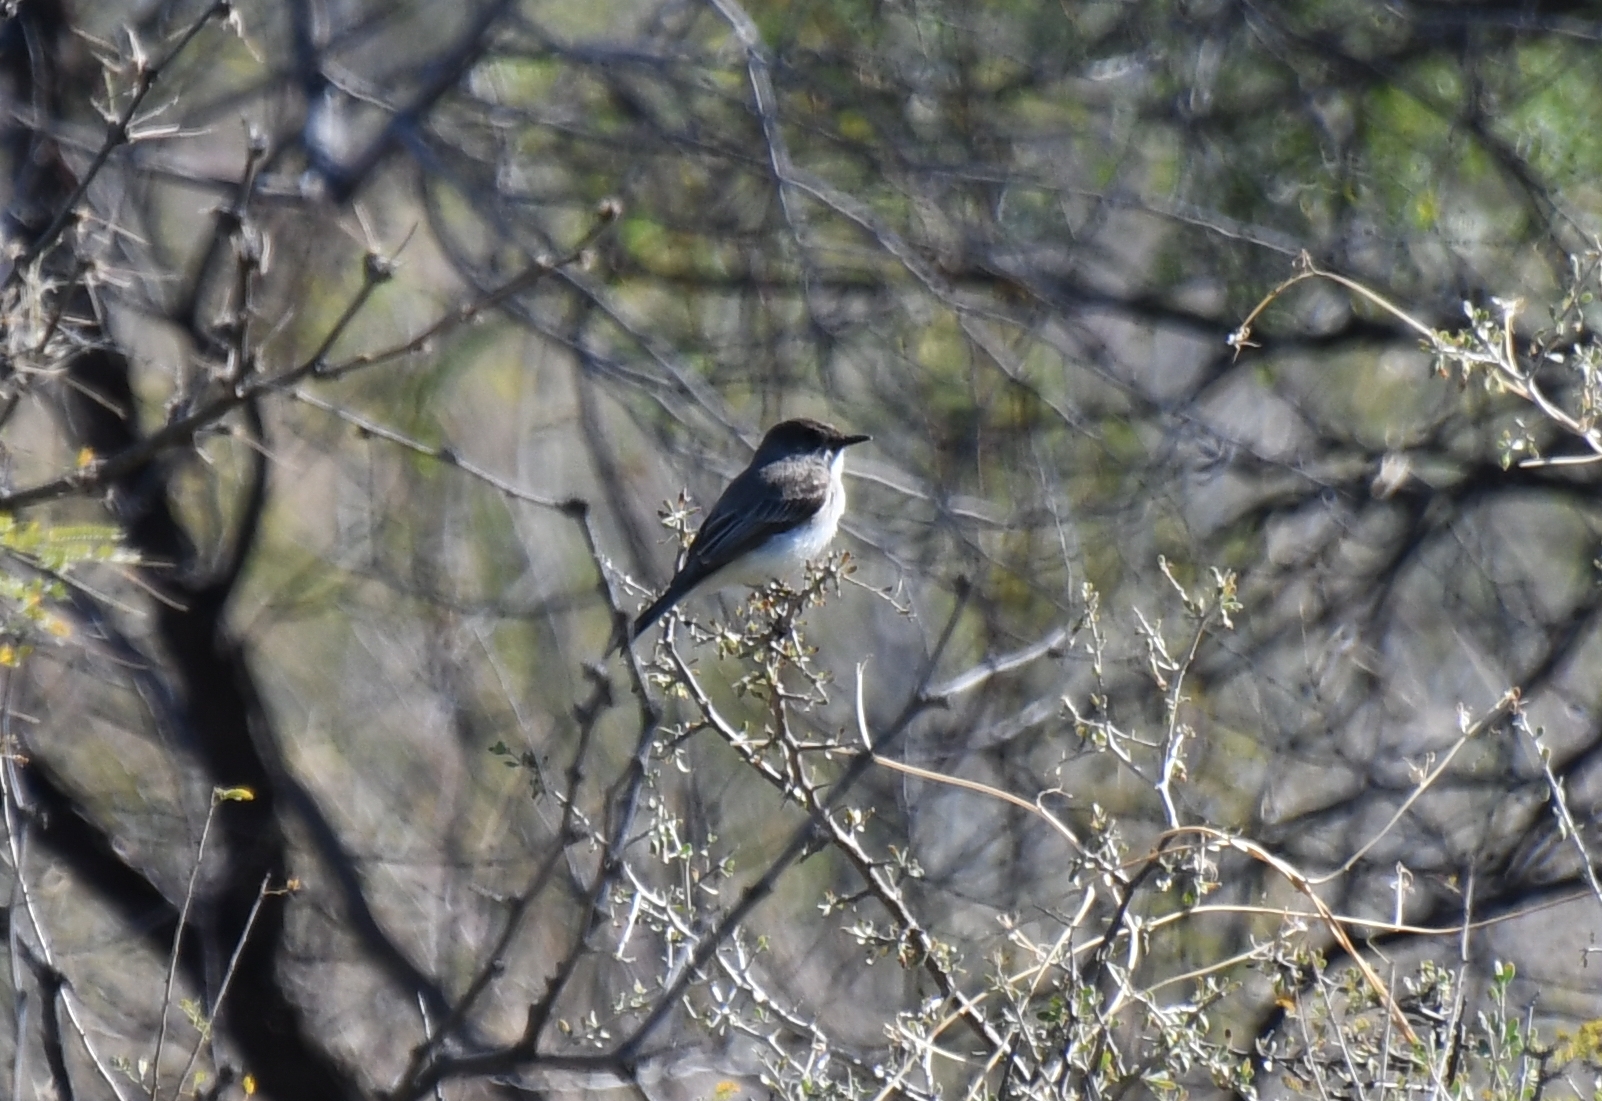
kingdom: Animalia
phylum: Chordata
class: Aves
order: Passeriformes
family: Tyrannidae
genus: Sayornis
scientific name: Sayornis phoebe
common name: Eastern phoebe
